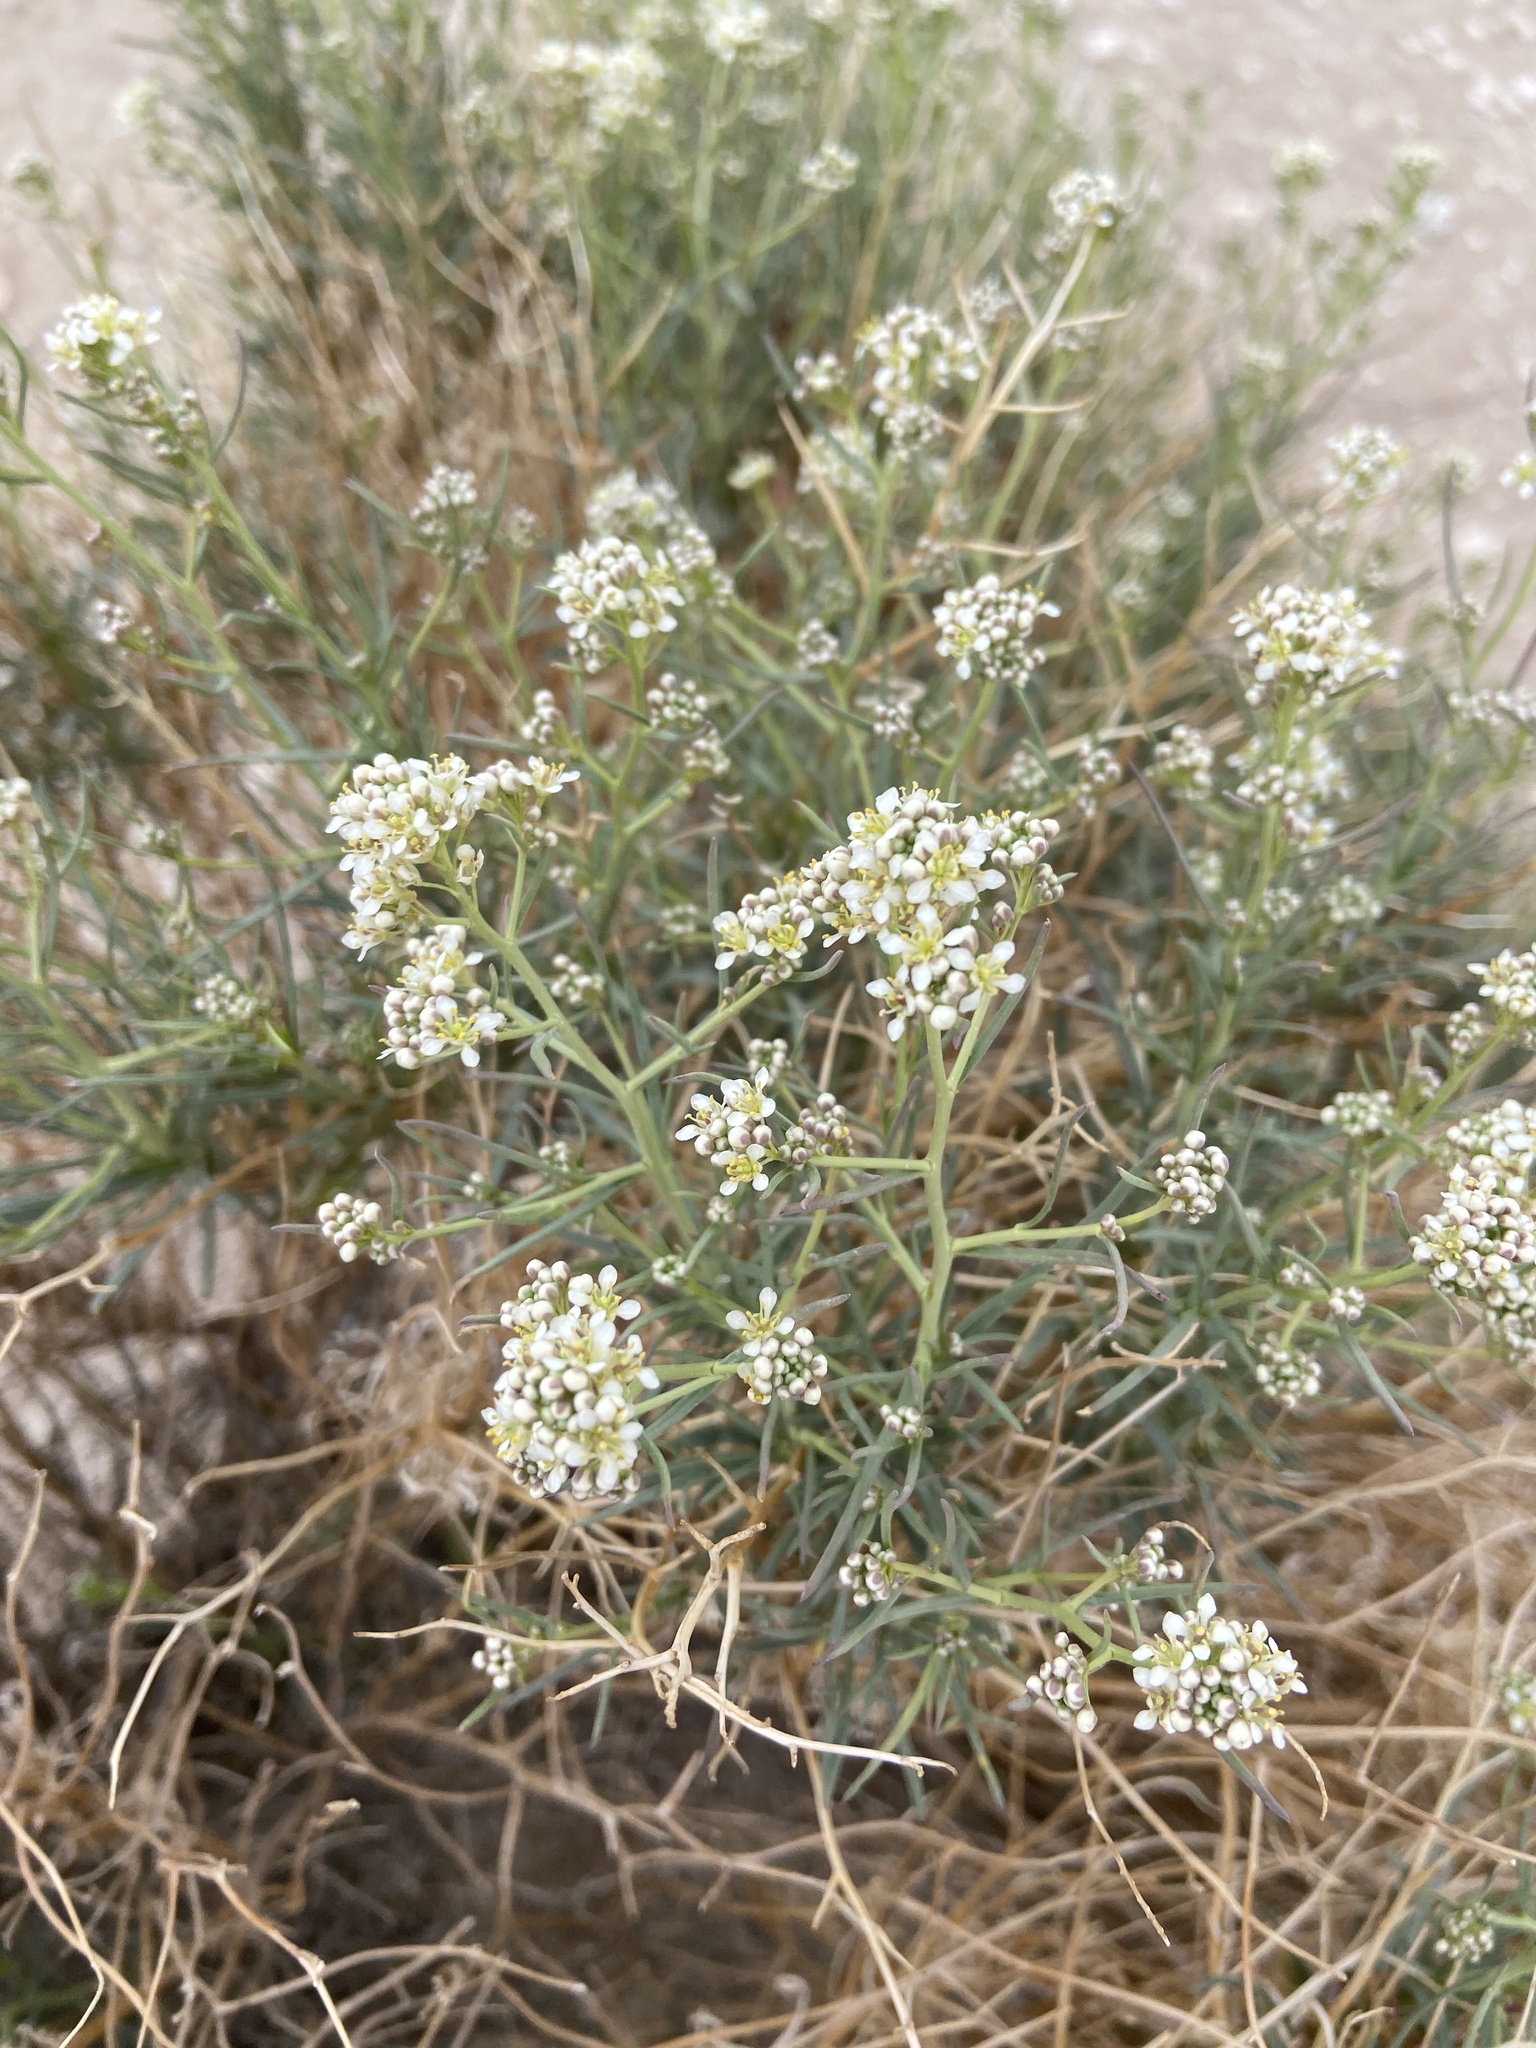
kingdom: Plantae
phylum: Tracheophyta
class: Magnoliopsida
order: Brassicales
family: Brassicaceae
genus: Lepidium
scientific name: Lepidium fremontii
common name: Fremont's pepperwort
